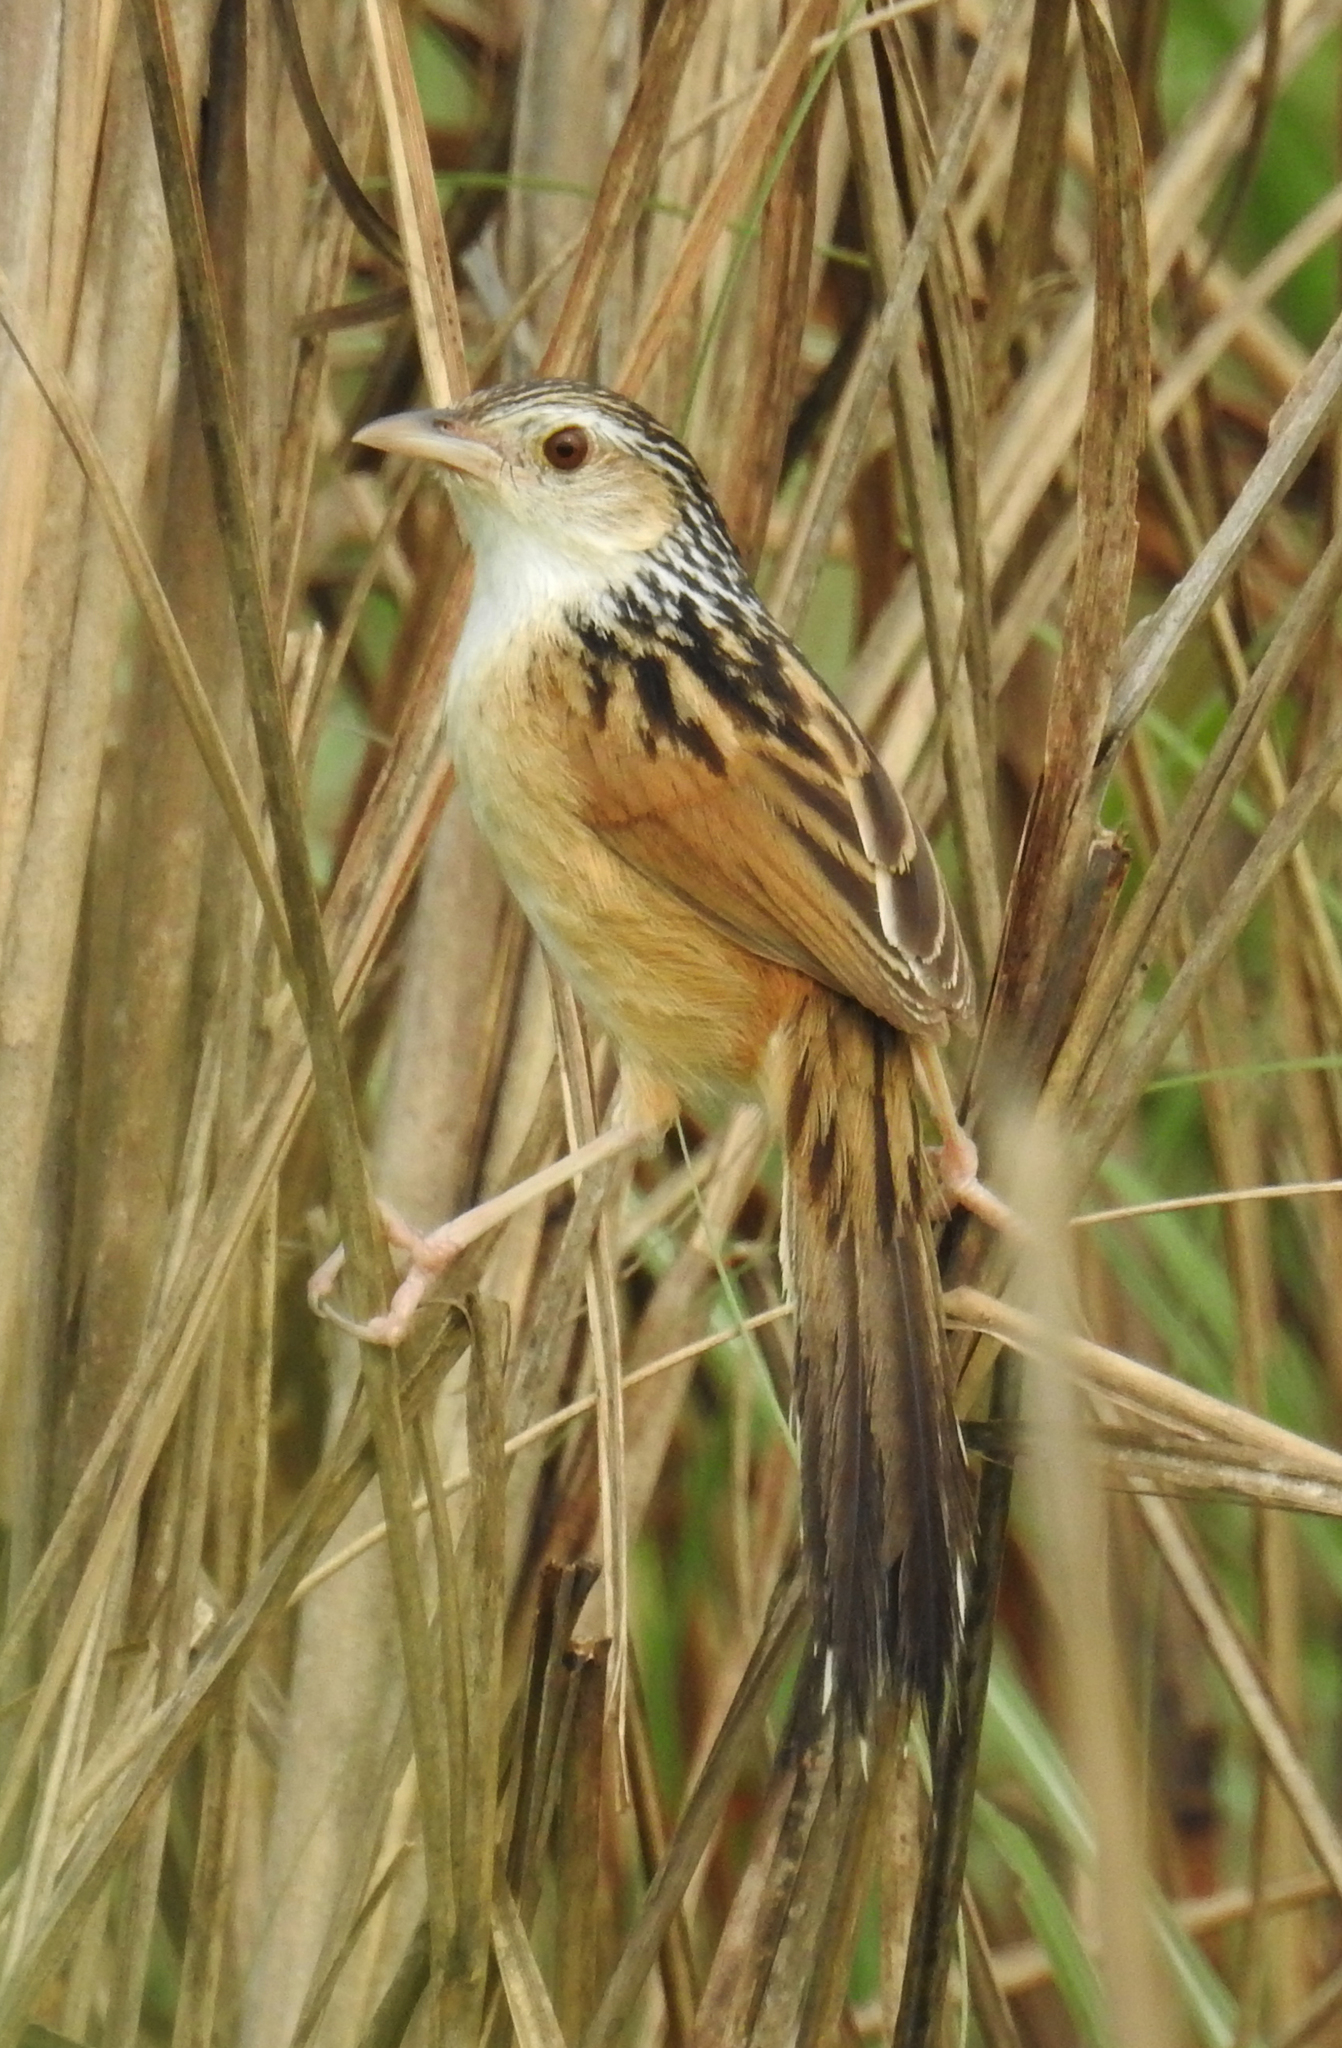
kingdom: Animalia
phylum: Chordata
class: Aves
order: Passeriformes
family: Pellorneidae
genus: Graminicola
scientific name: Graminicola bengalensis
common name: Indian grassbird
